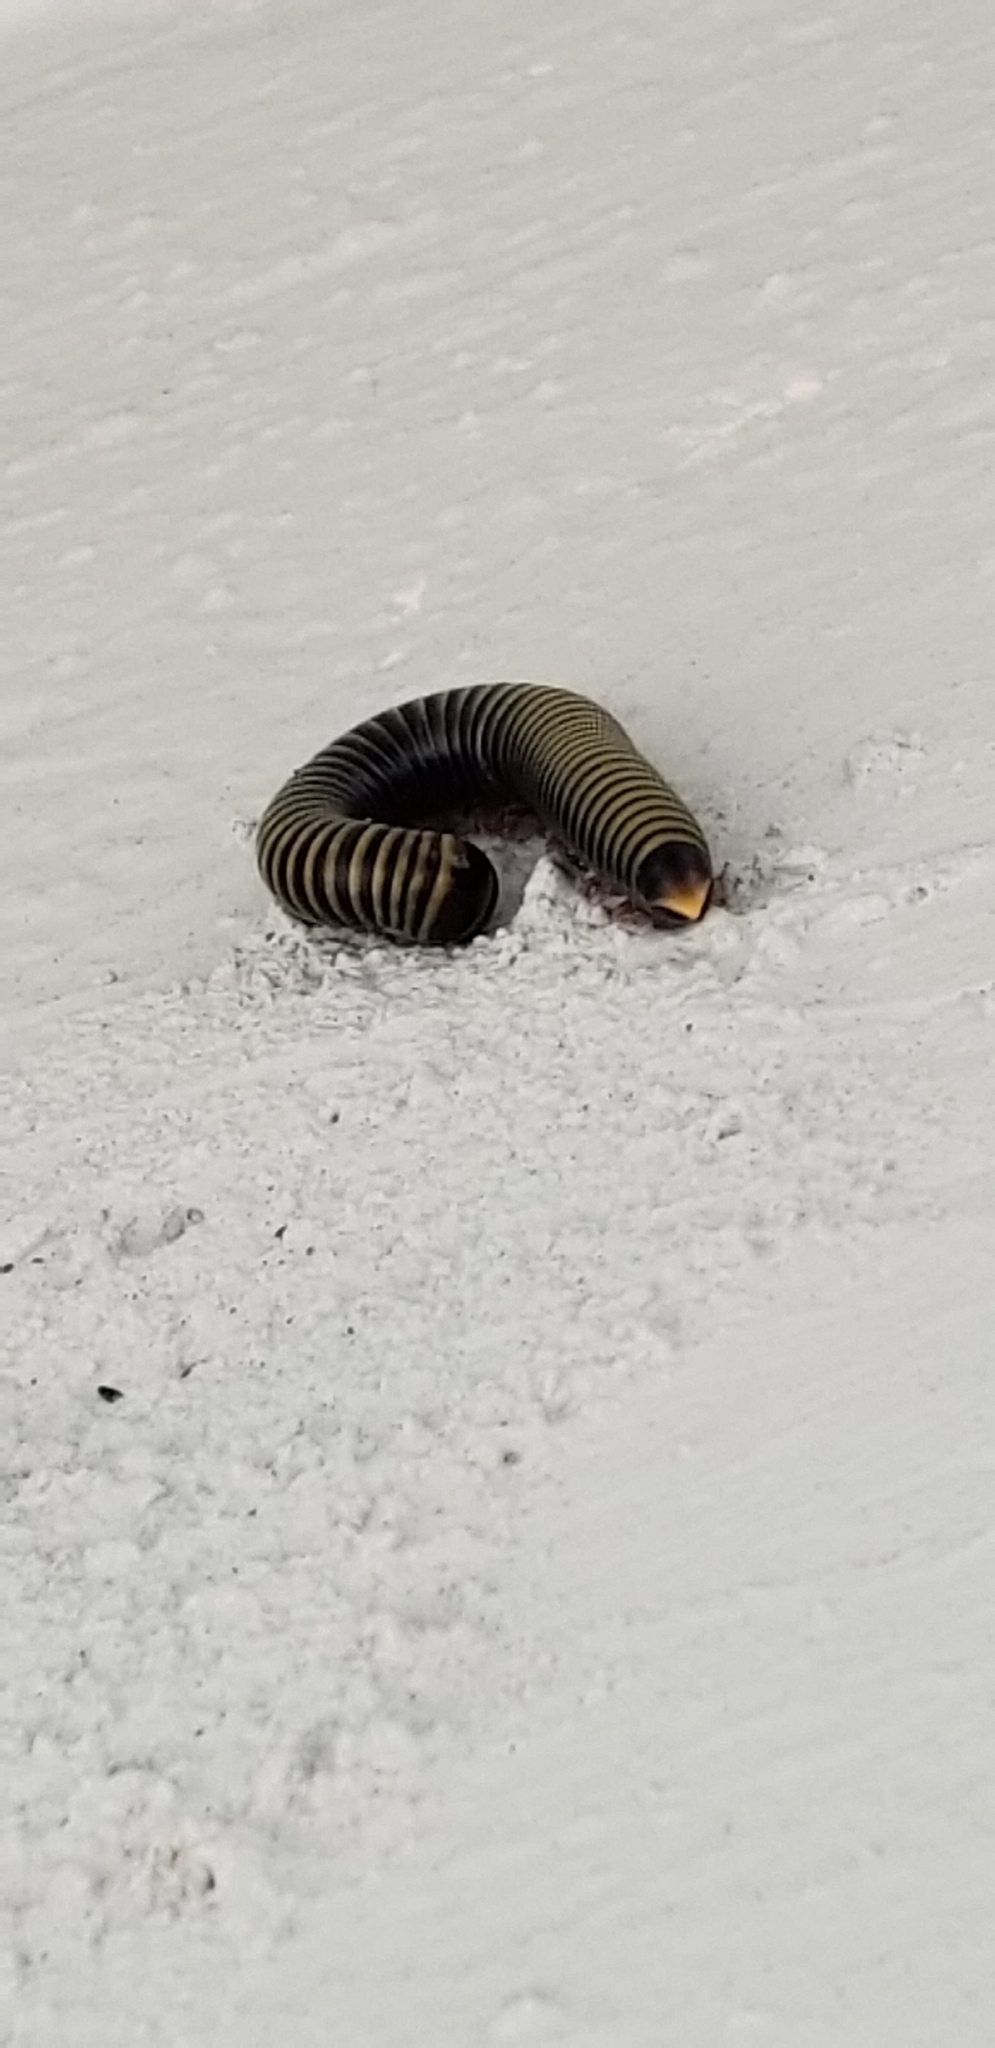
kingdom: Animalia
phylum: Arthropoda
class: Diplopoda
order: Spirobolida
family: Rhinocricidae
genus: Anadenobolus
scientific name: Anadenobolus monilicornis
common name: Caribbean millipede
